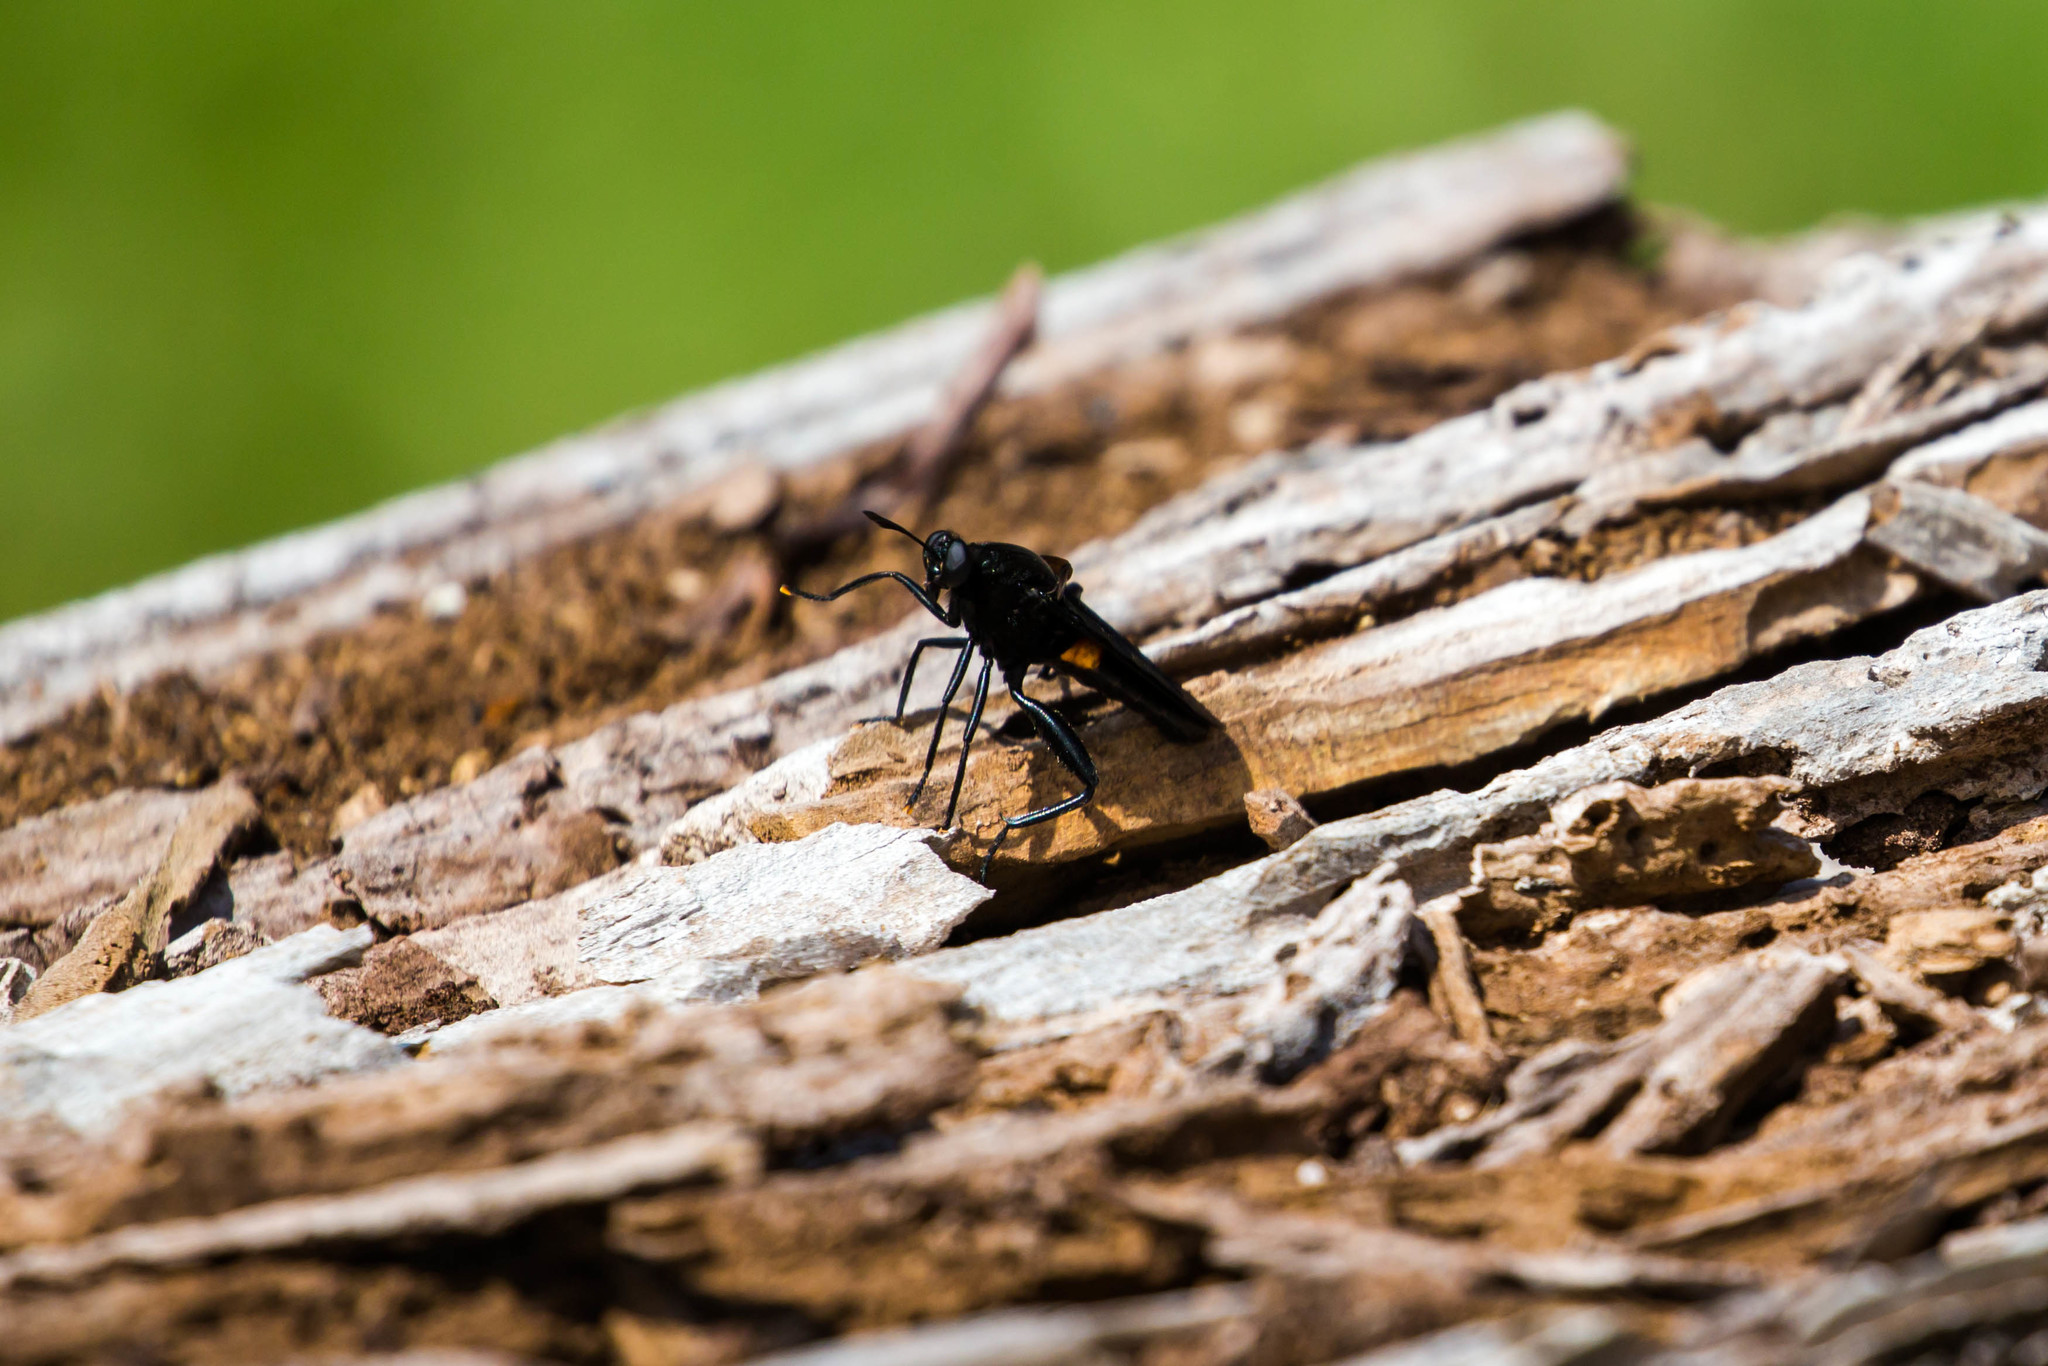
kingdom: Animalia
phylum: Arthropoda
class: Insecta
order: Diptera
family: Mydidae
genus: Mydas
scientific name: Mydas clavatus
